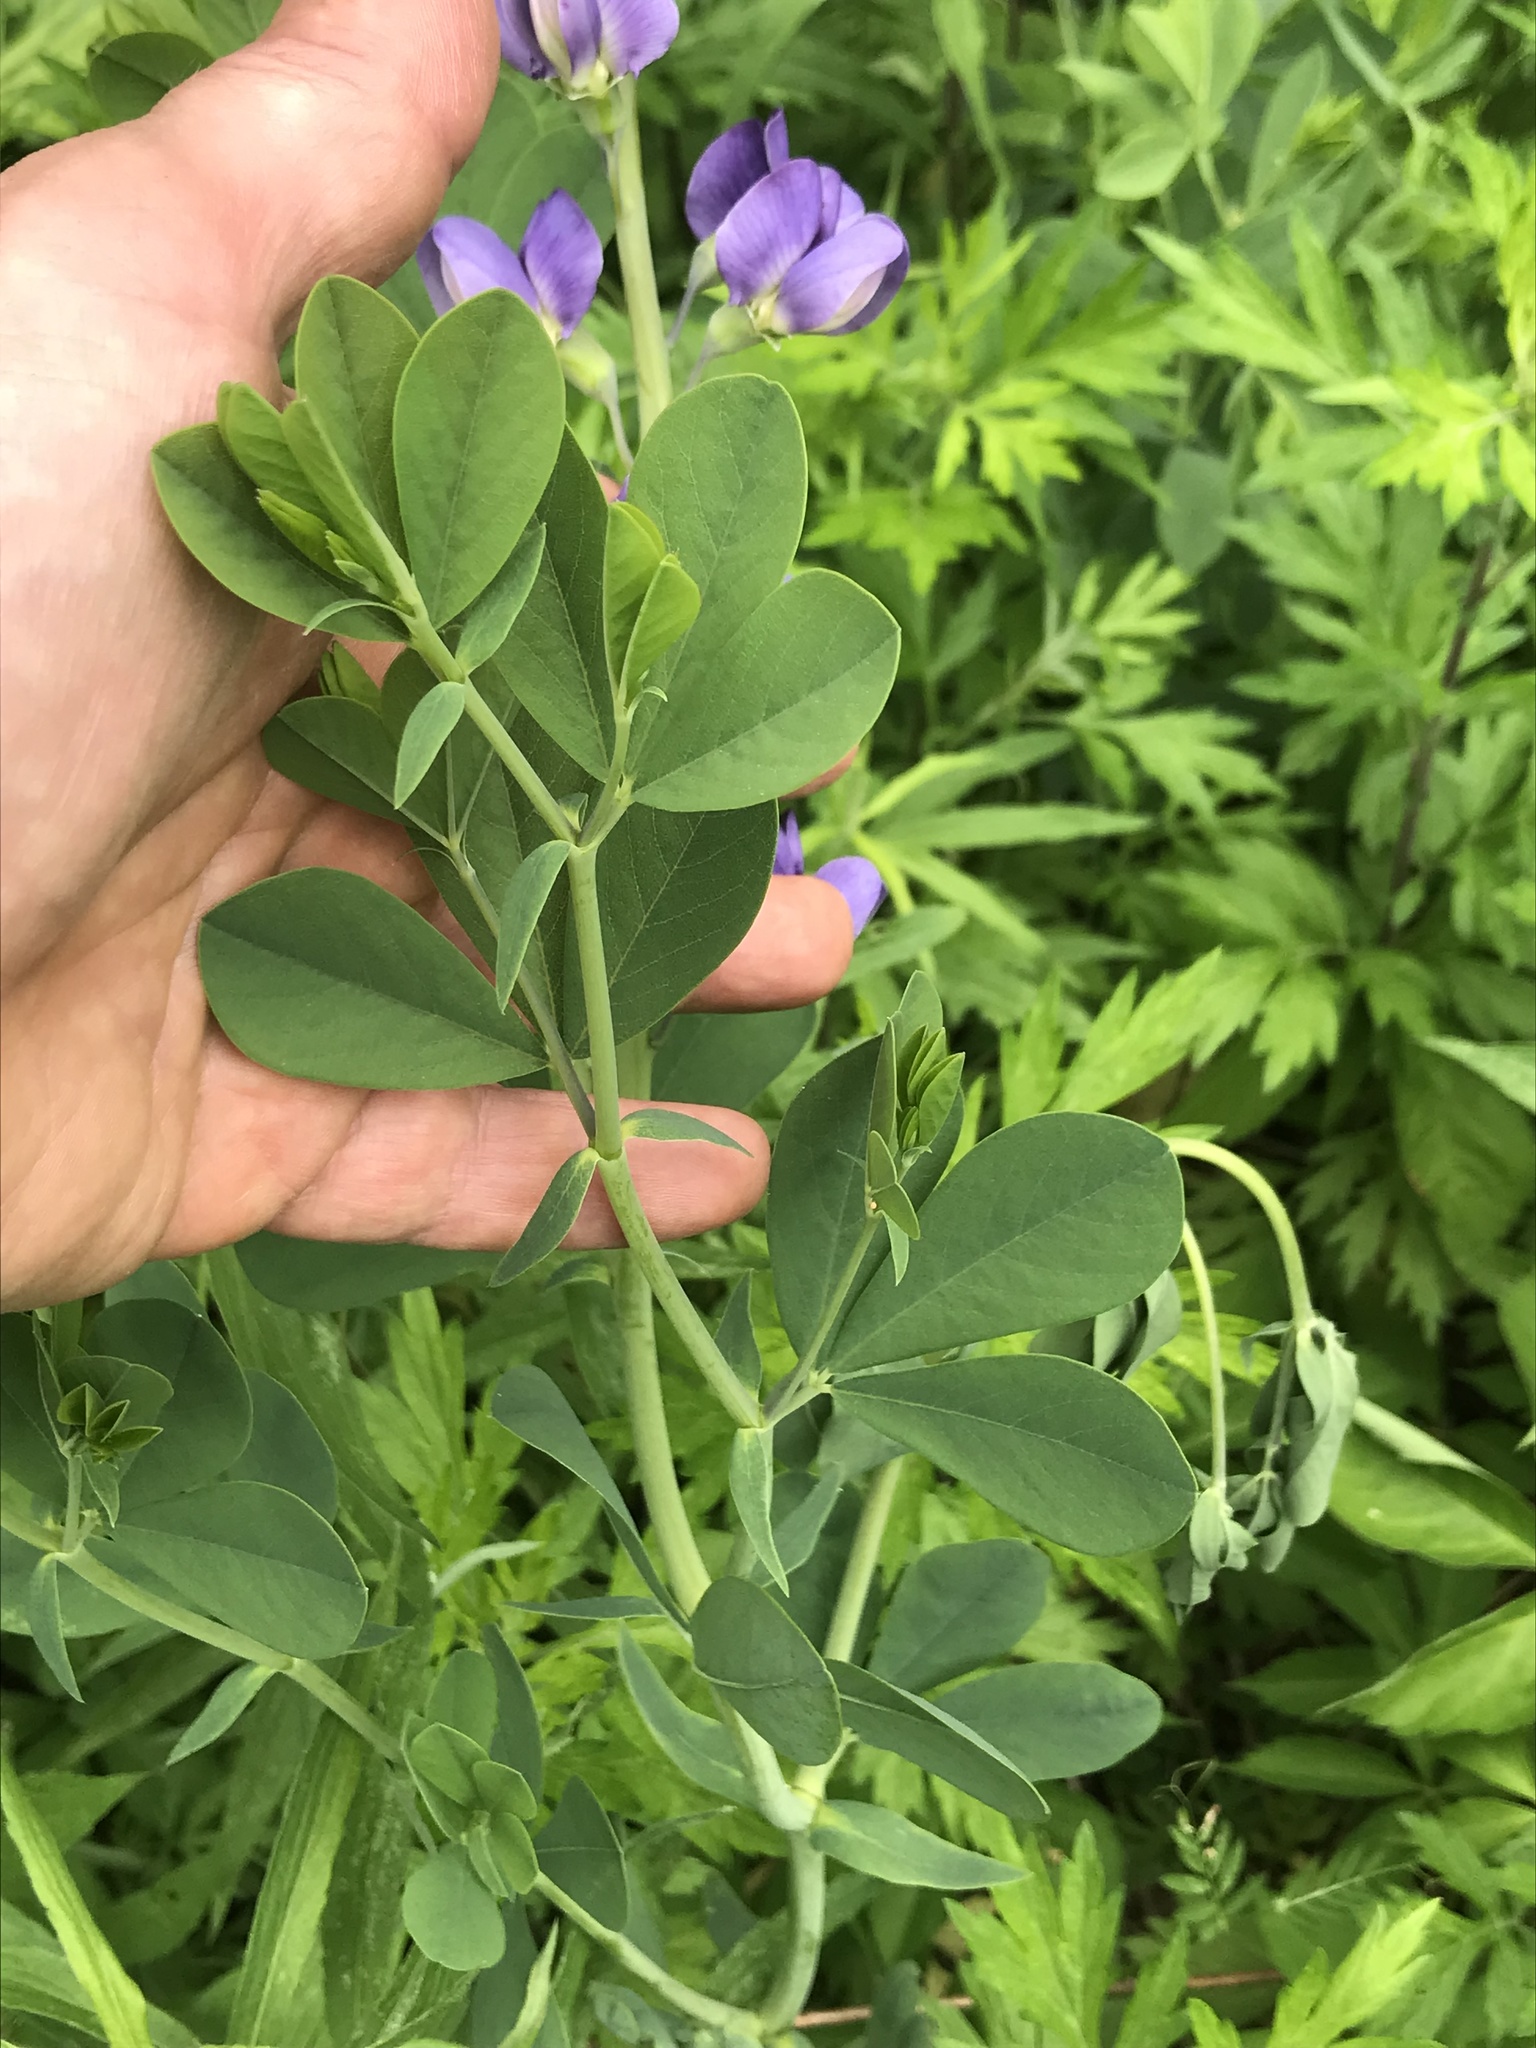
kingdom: Plantae
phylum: Tracheophyta
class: Magnoliopsida
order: Fabales
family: Fabaceae
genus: Baptisia
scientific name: Baptisia australis
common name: Blue false indigo
